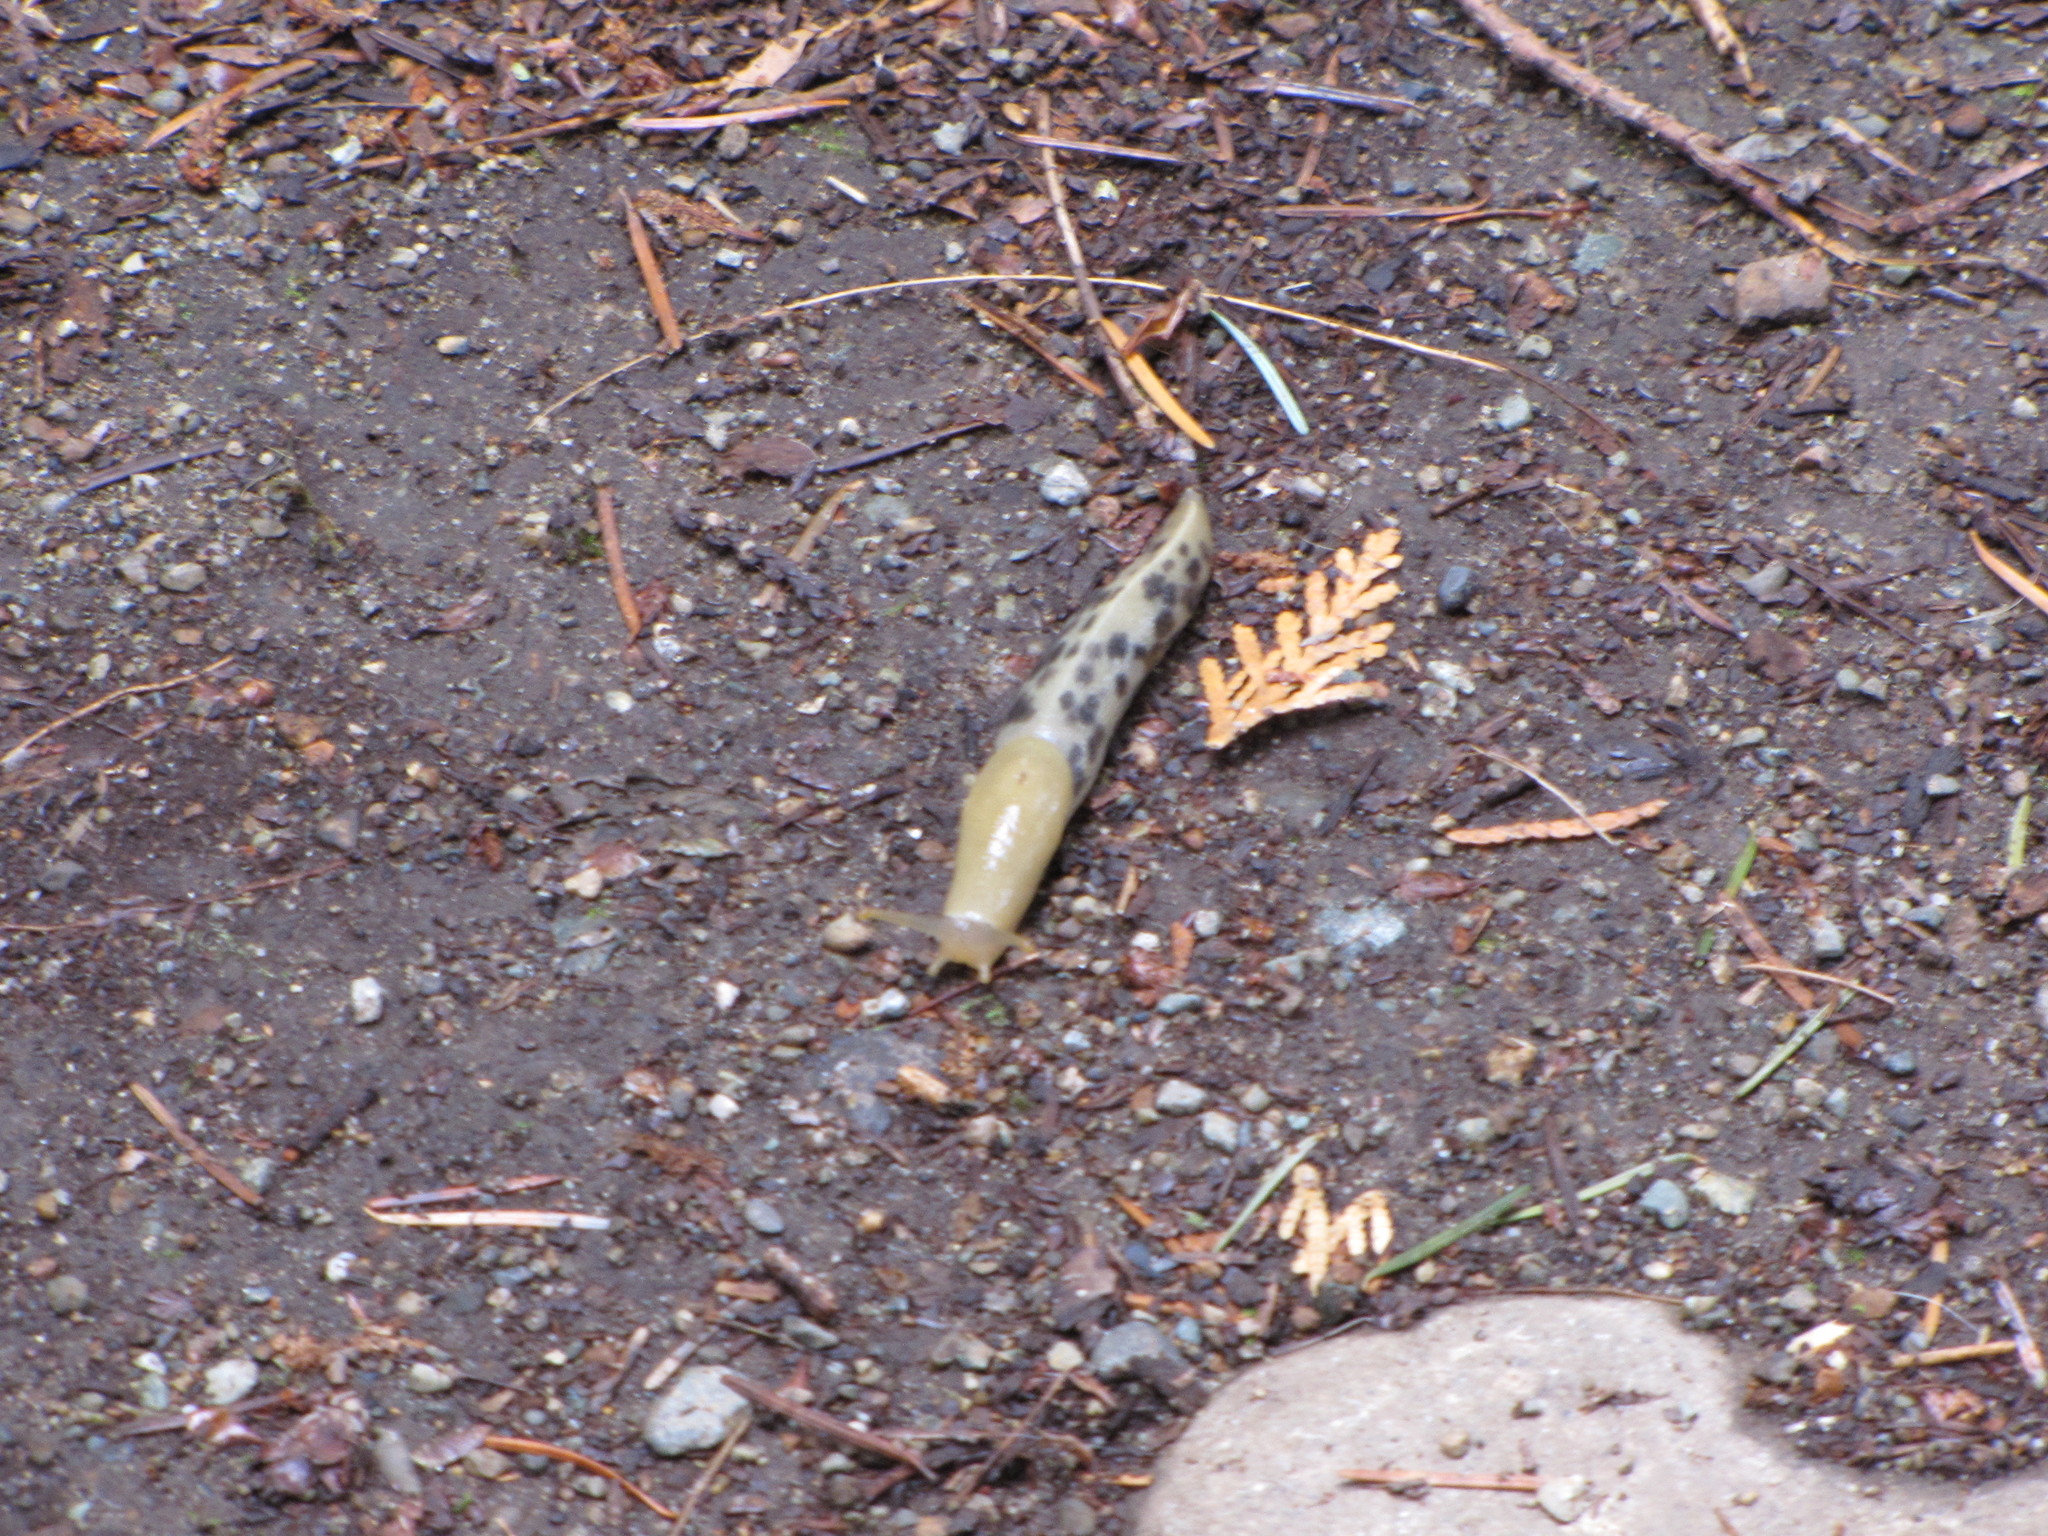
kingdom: Animalia
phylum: Mollusca
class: Gastropoda
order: Stylommatophora
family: Ariolimacidae
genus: Ariolimax
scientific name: Ariolimax columbianus
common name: Pacific banana slug
